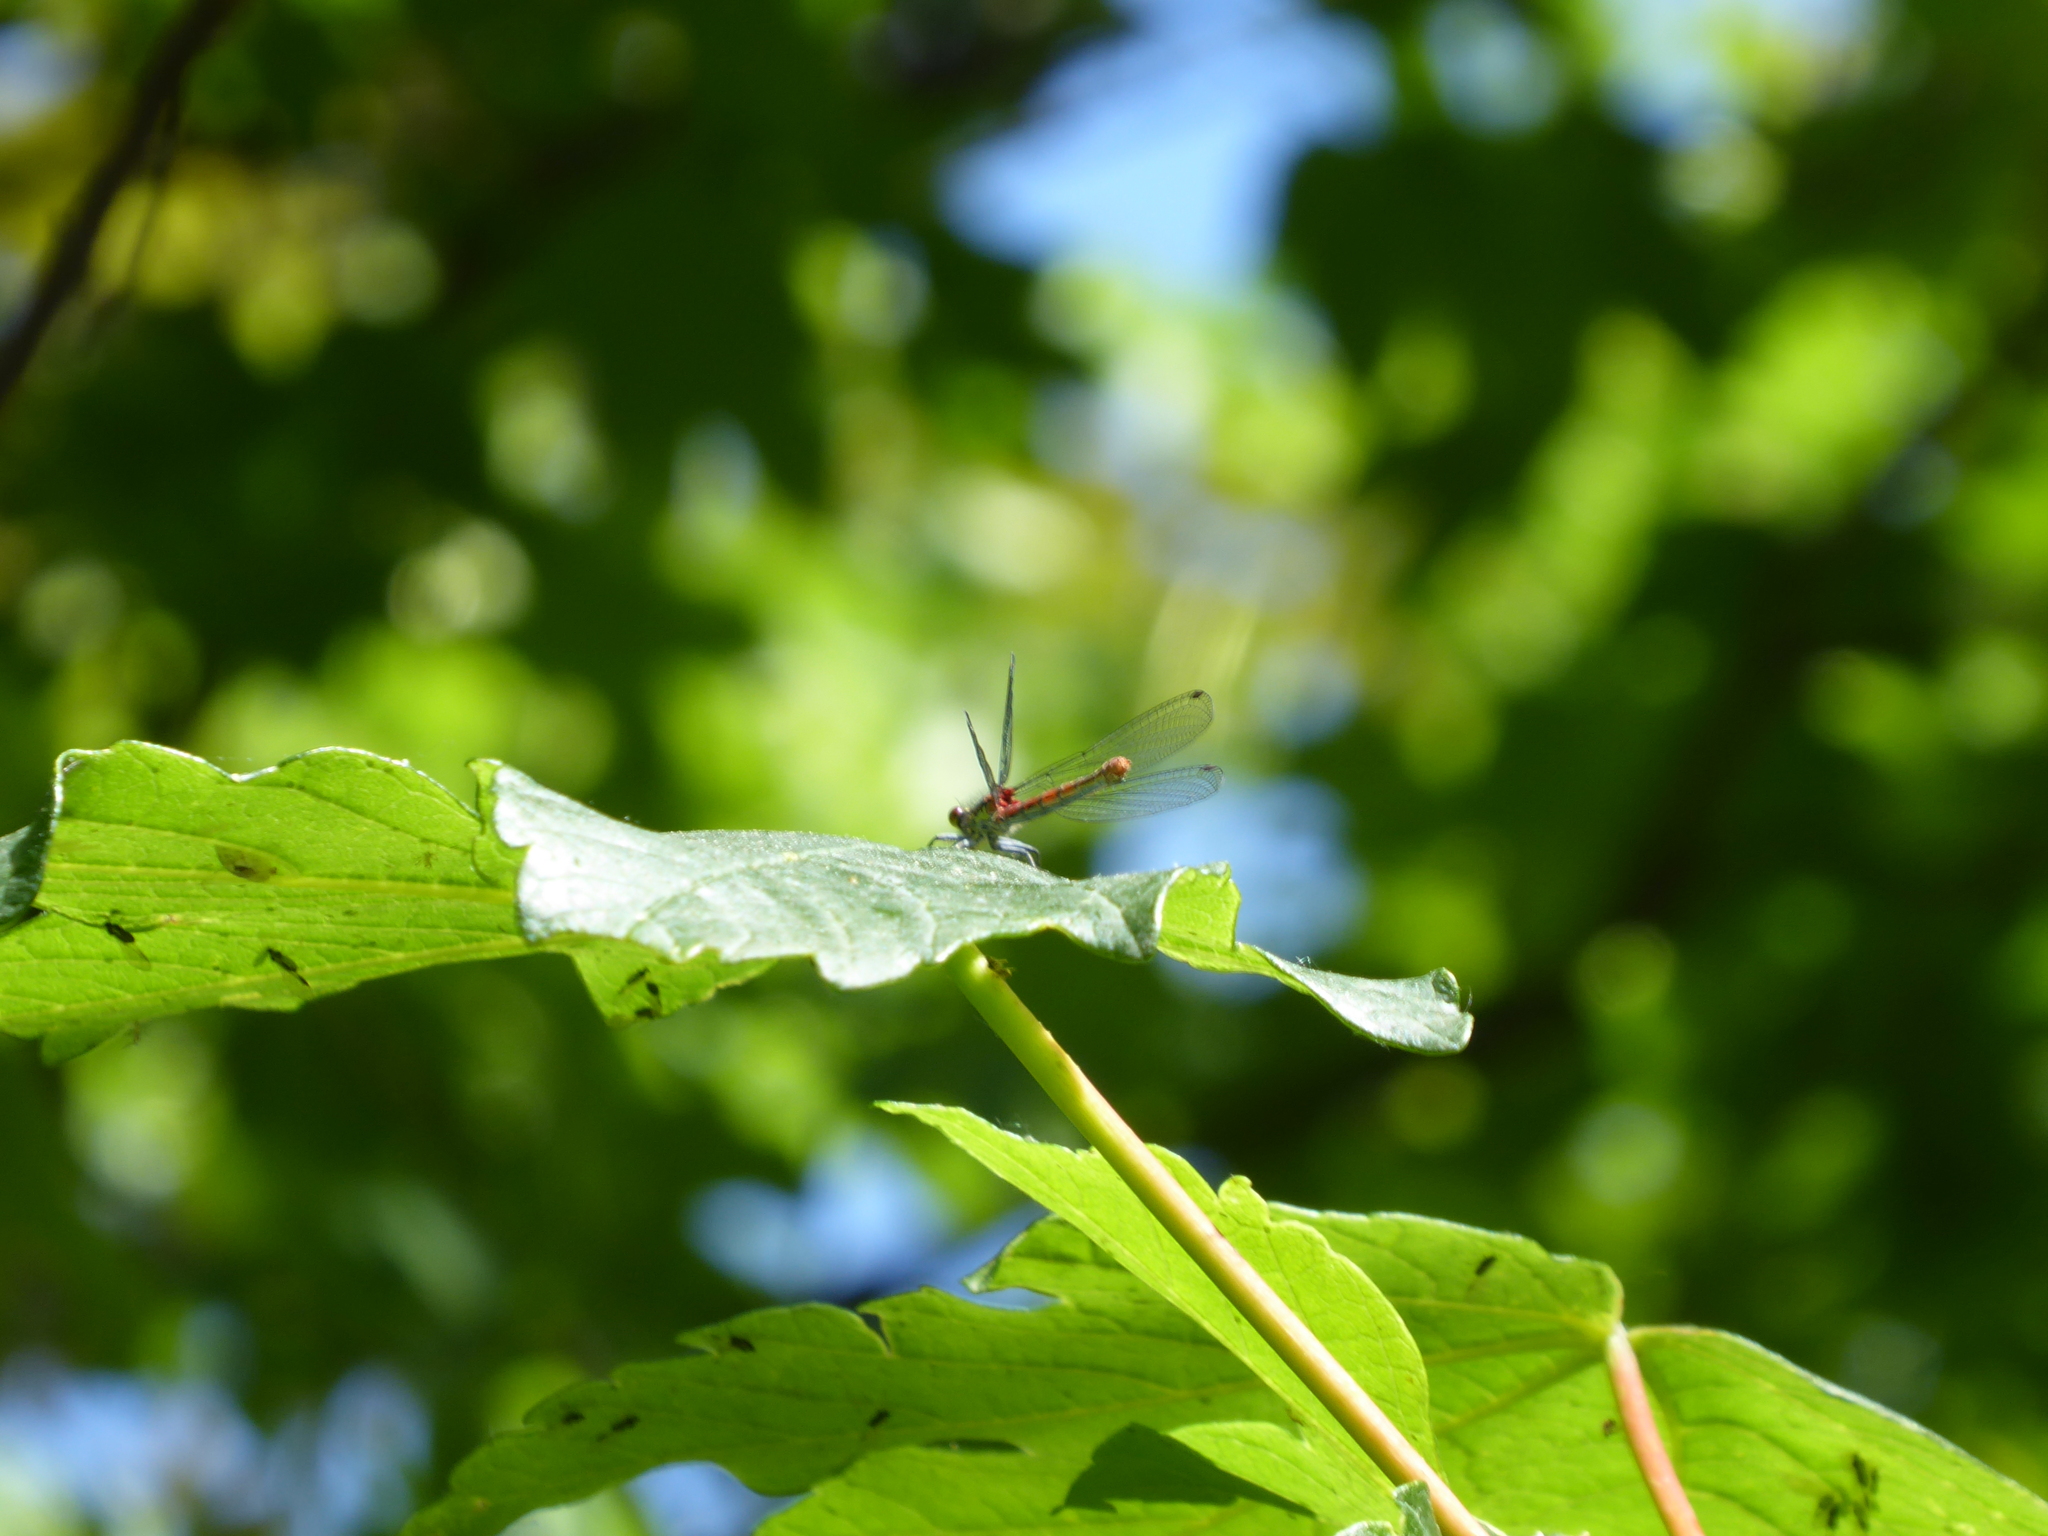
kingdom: Animalia
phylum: Arthropoda
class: Insecta
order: Odonata
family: Coenagrionidae
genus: Pyrrhosoma
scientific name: Pyrrhosoma nymphula
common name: Large red damsel
